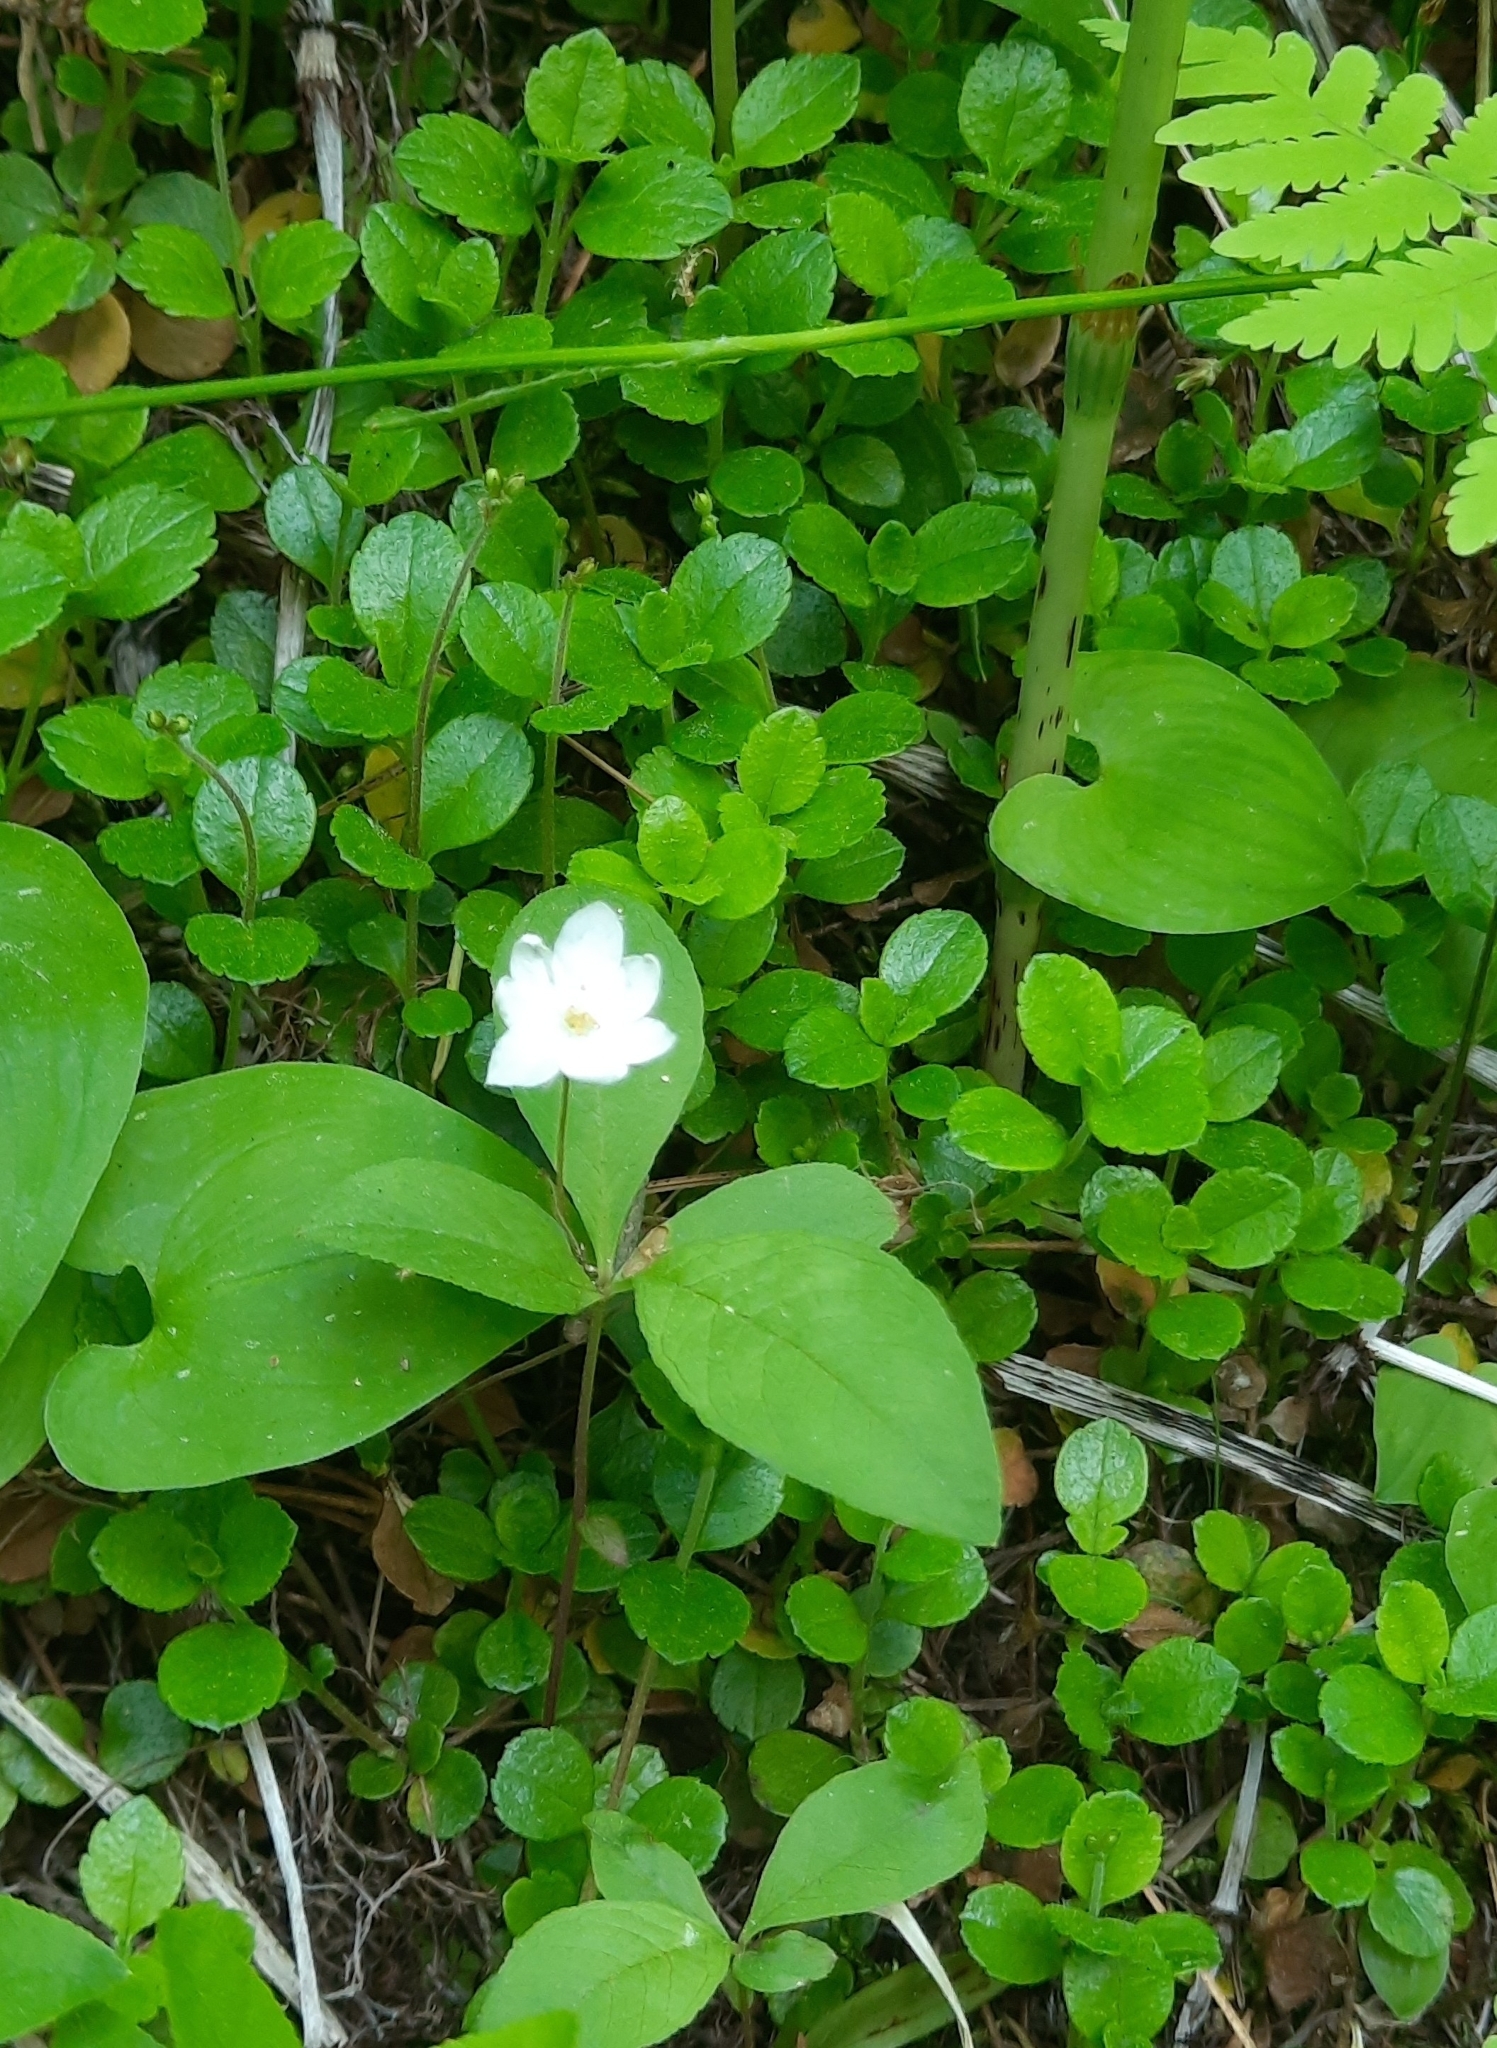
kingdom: Plantae
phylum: Tracheophyta
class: Magnoliopsida
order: Ericales
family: Primulaceae
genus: Lysimachia
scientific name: Lysimachia europaea
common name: Arctic starflower
